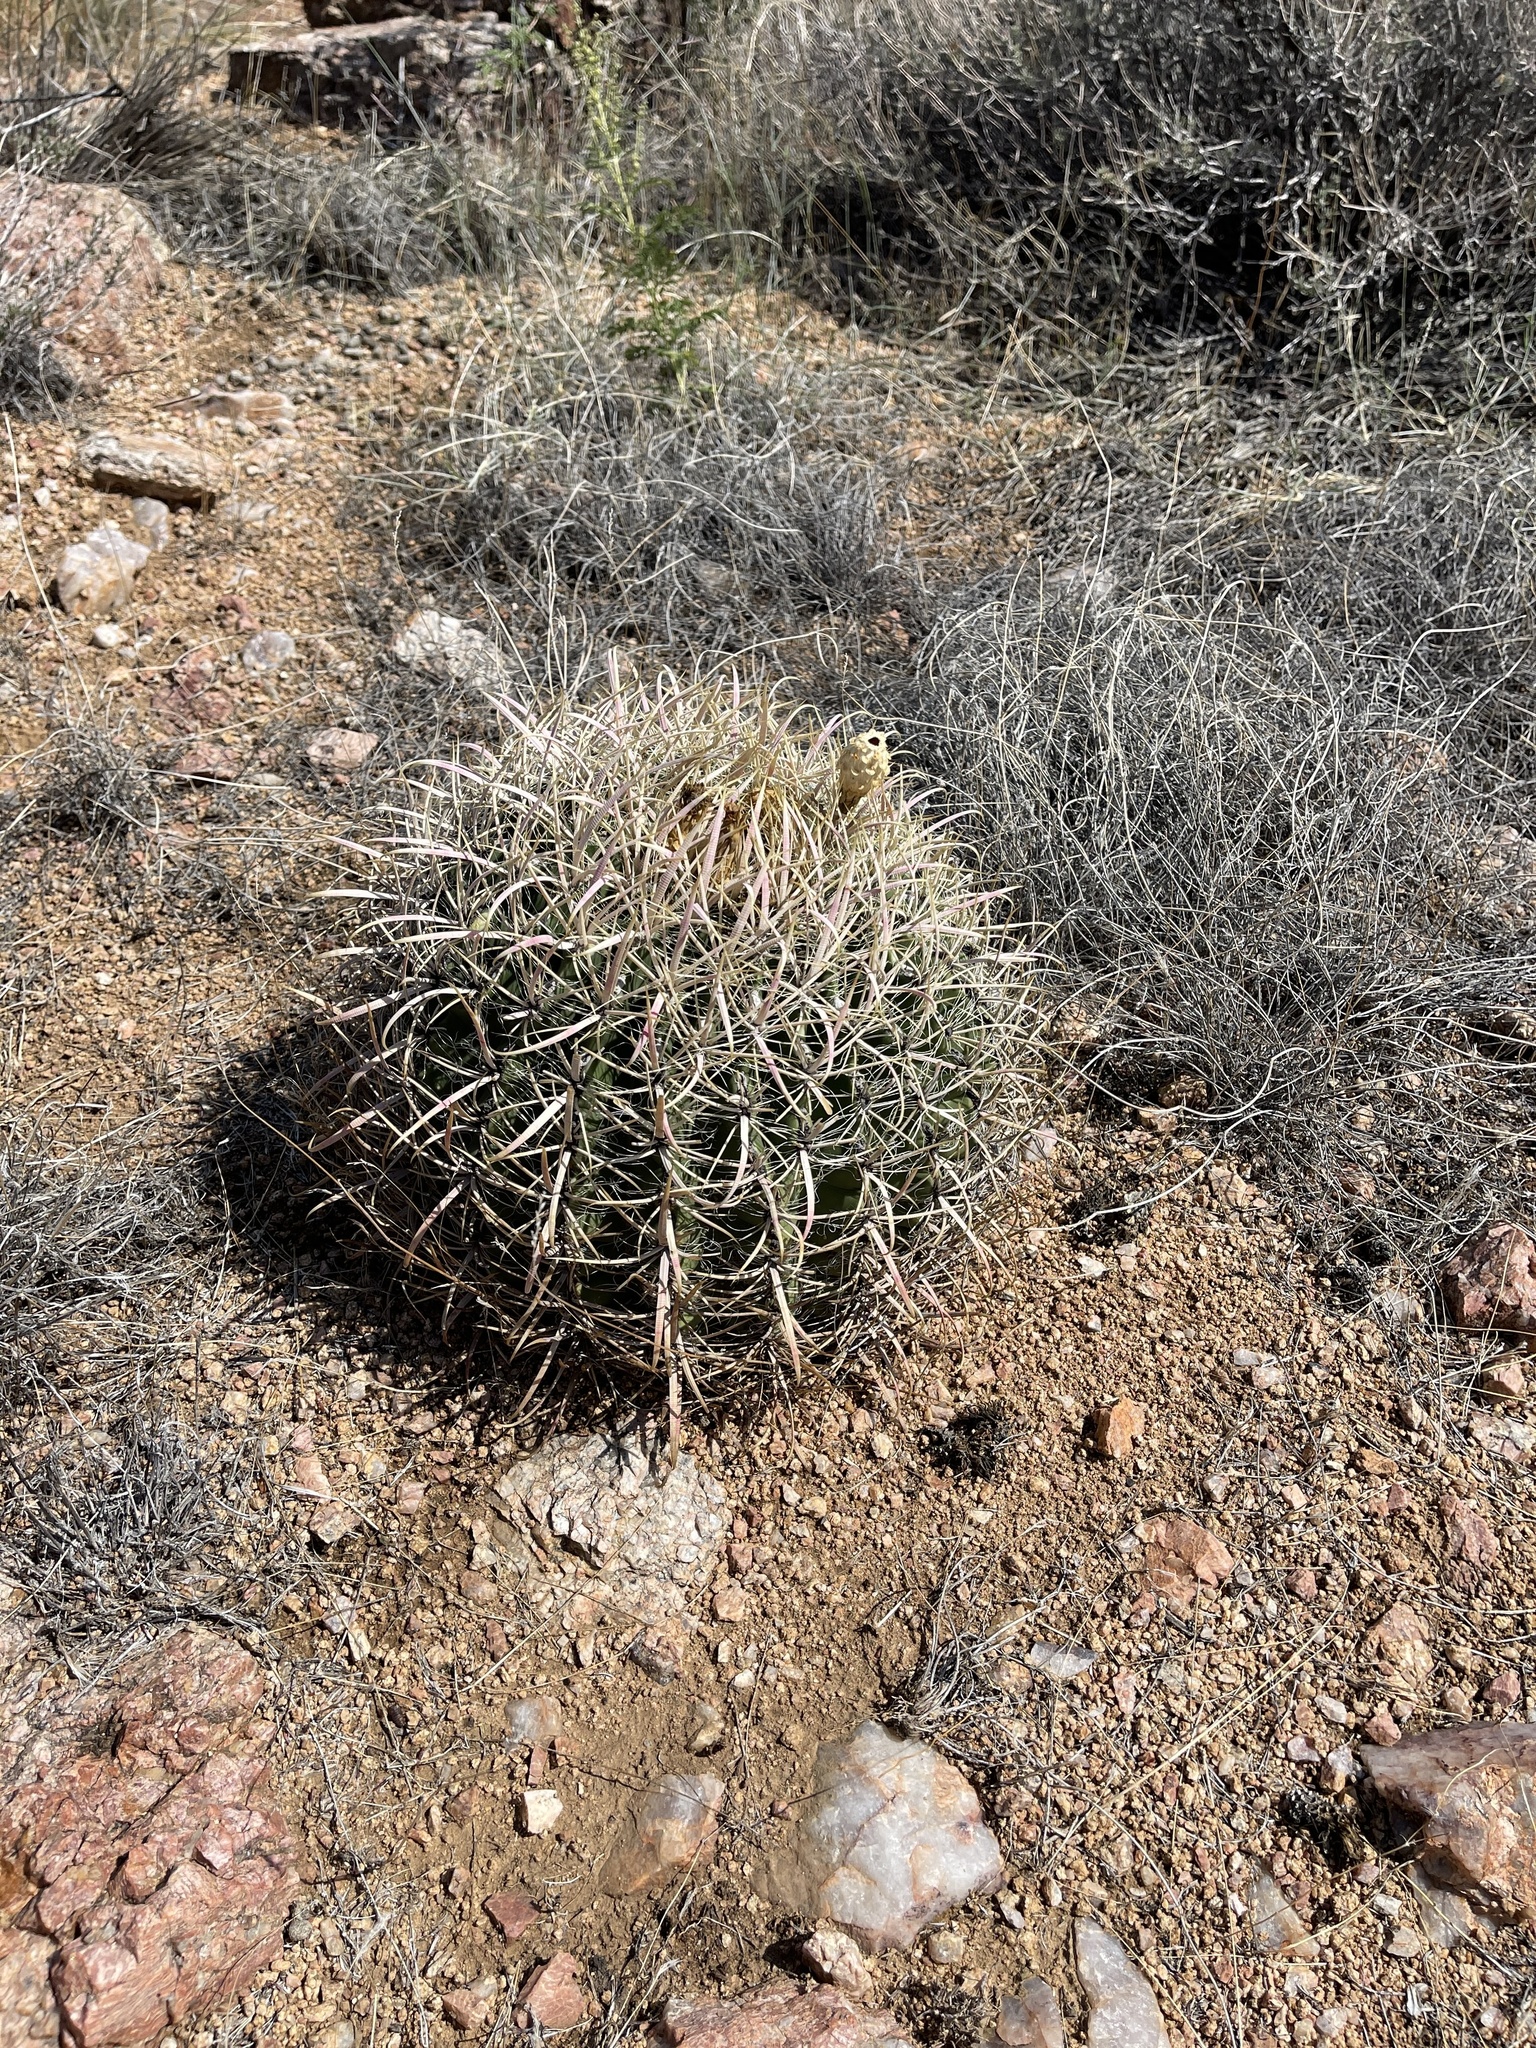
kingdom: Plantae
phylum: Tracheophyta
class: Magnoliopsida
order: Caryophyllales
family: Cactaceae
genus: Ferocactus
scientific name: Ferocactus cylindraceus
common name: California barrel cactus
